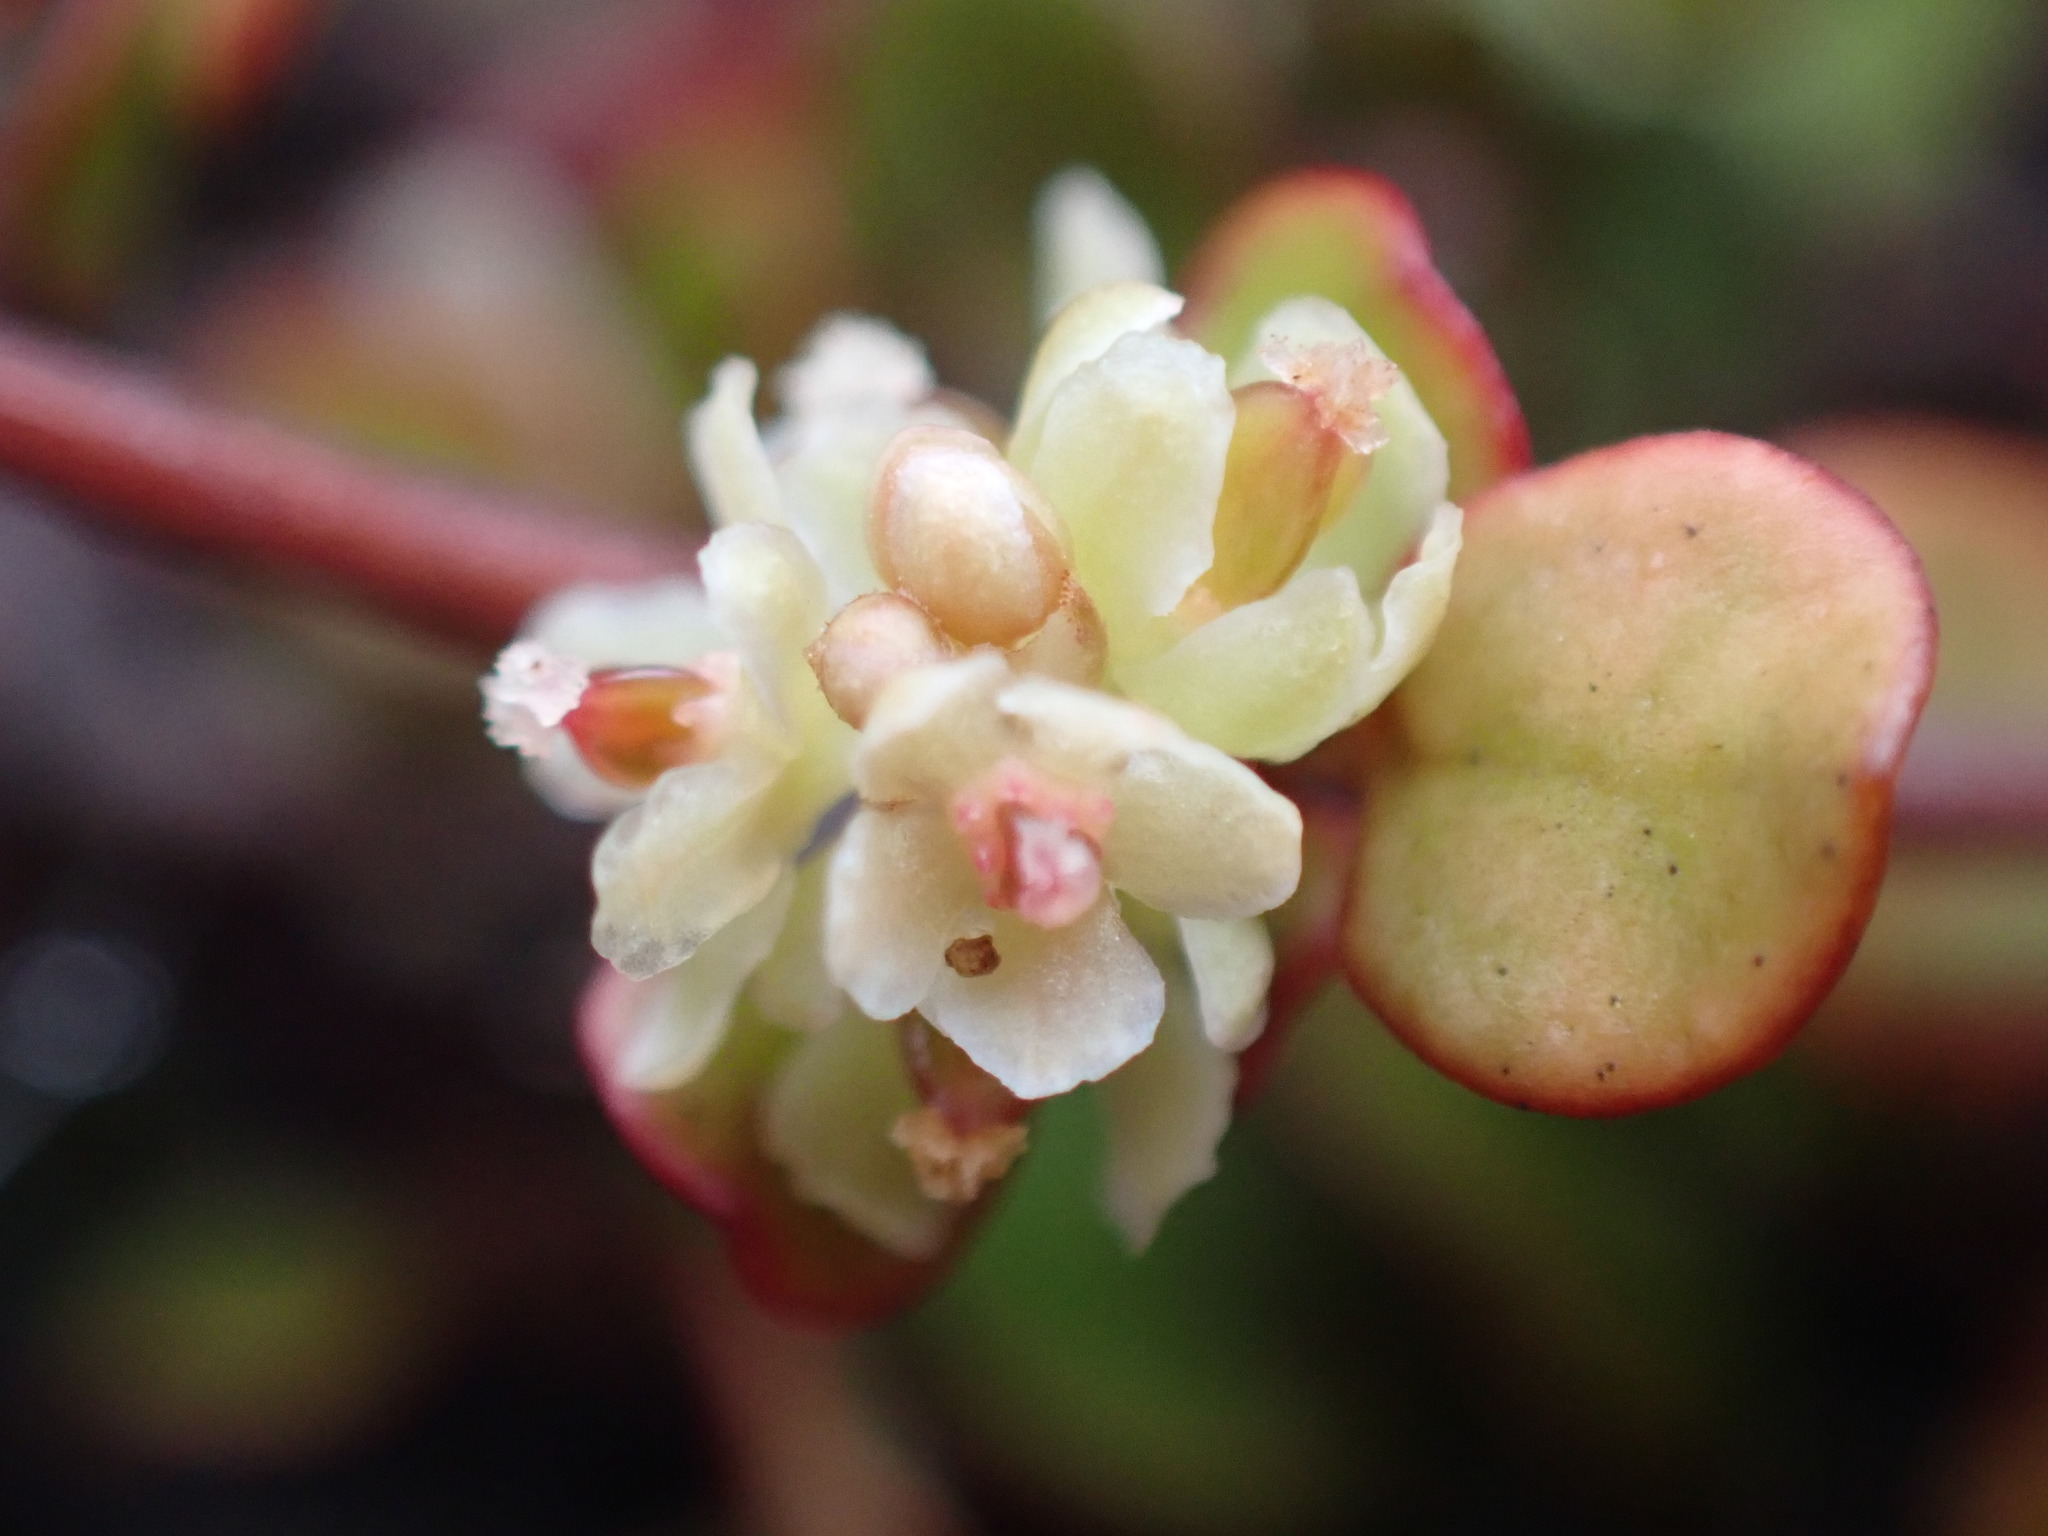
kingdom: Plantae
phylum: Tracheophyta
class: Magnoliopsida
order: Caryophyllales
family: Polygonaceae
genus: Muehlenbeckia
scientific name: Muehlenbeckia complexa
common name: Wireplant
